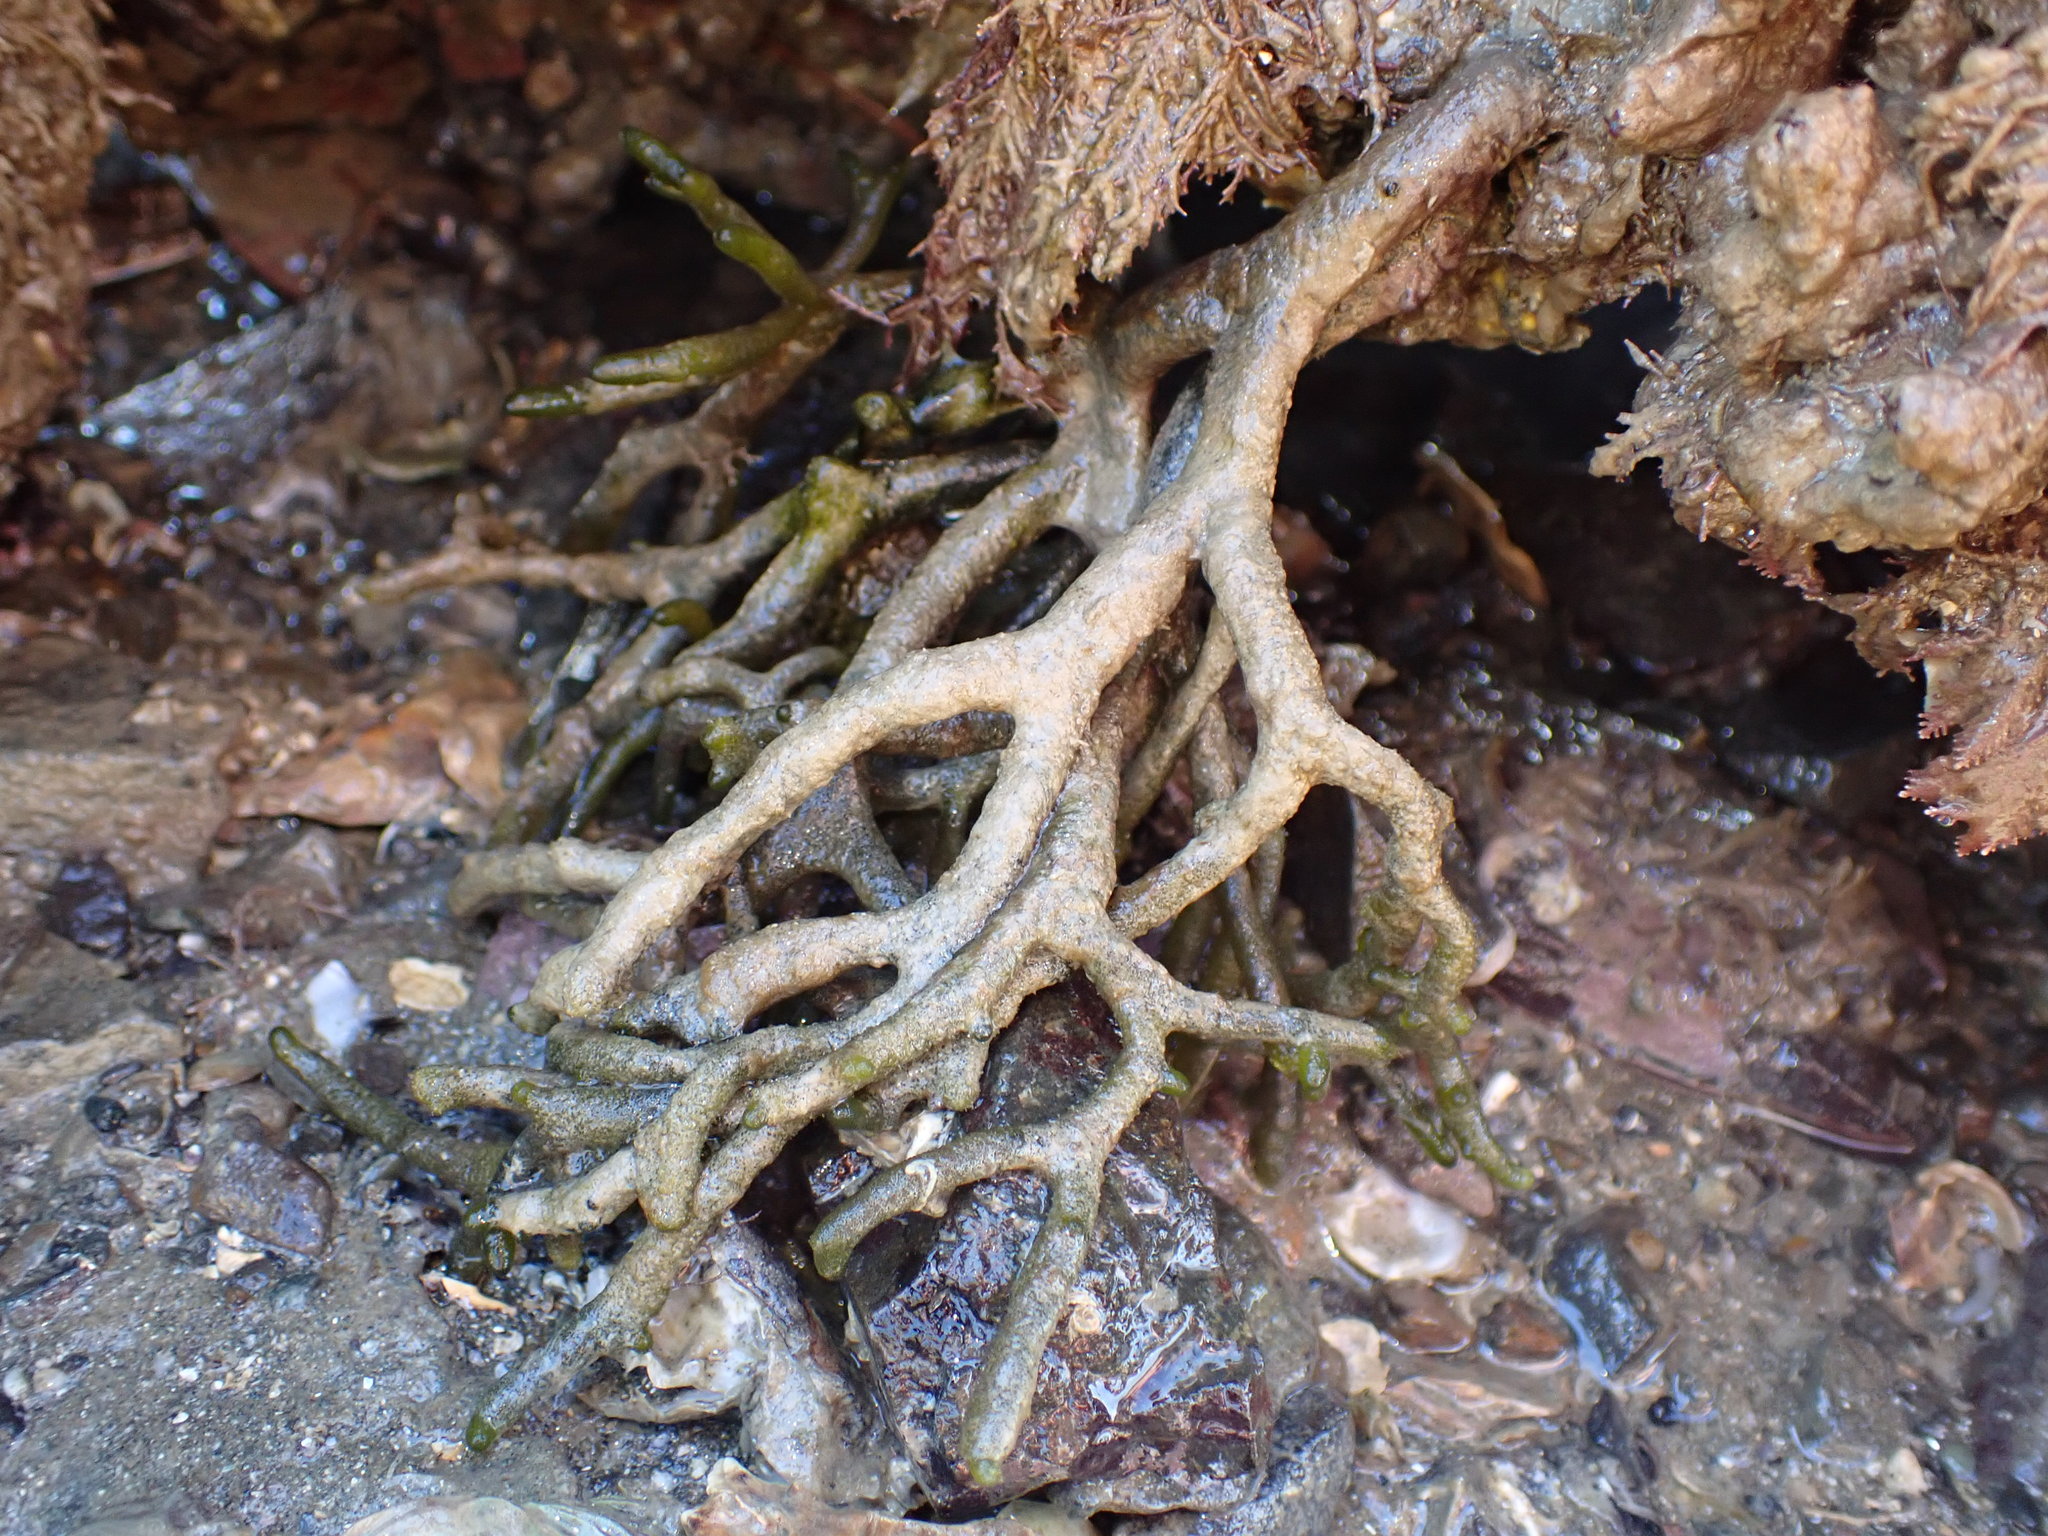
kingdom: Plantae
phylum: Chlorophyta
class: Ulvophyceae
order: Bryopsidales
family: Codiaceae
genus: Codium
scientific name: Codium fragile
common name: Dead man's fingers
